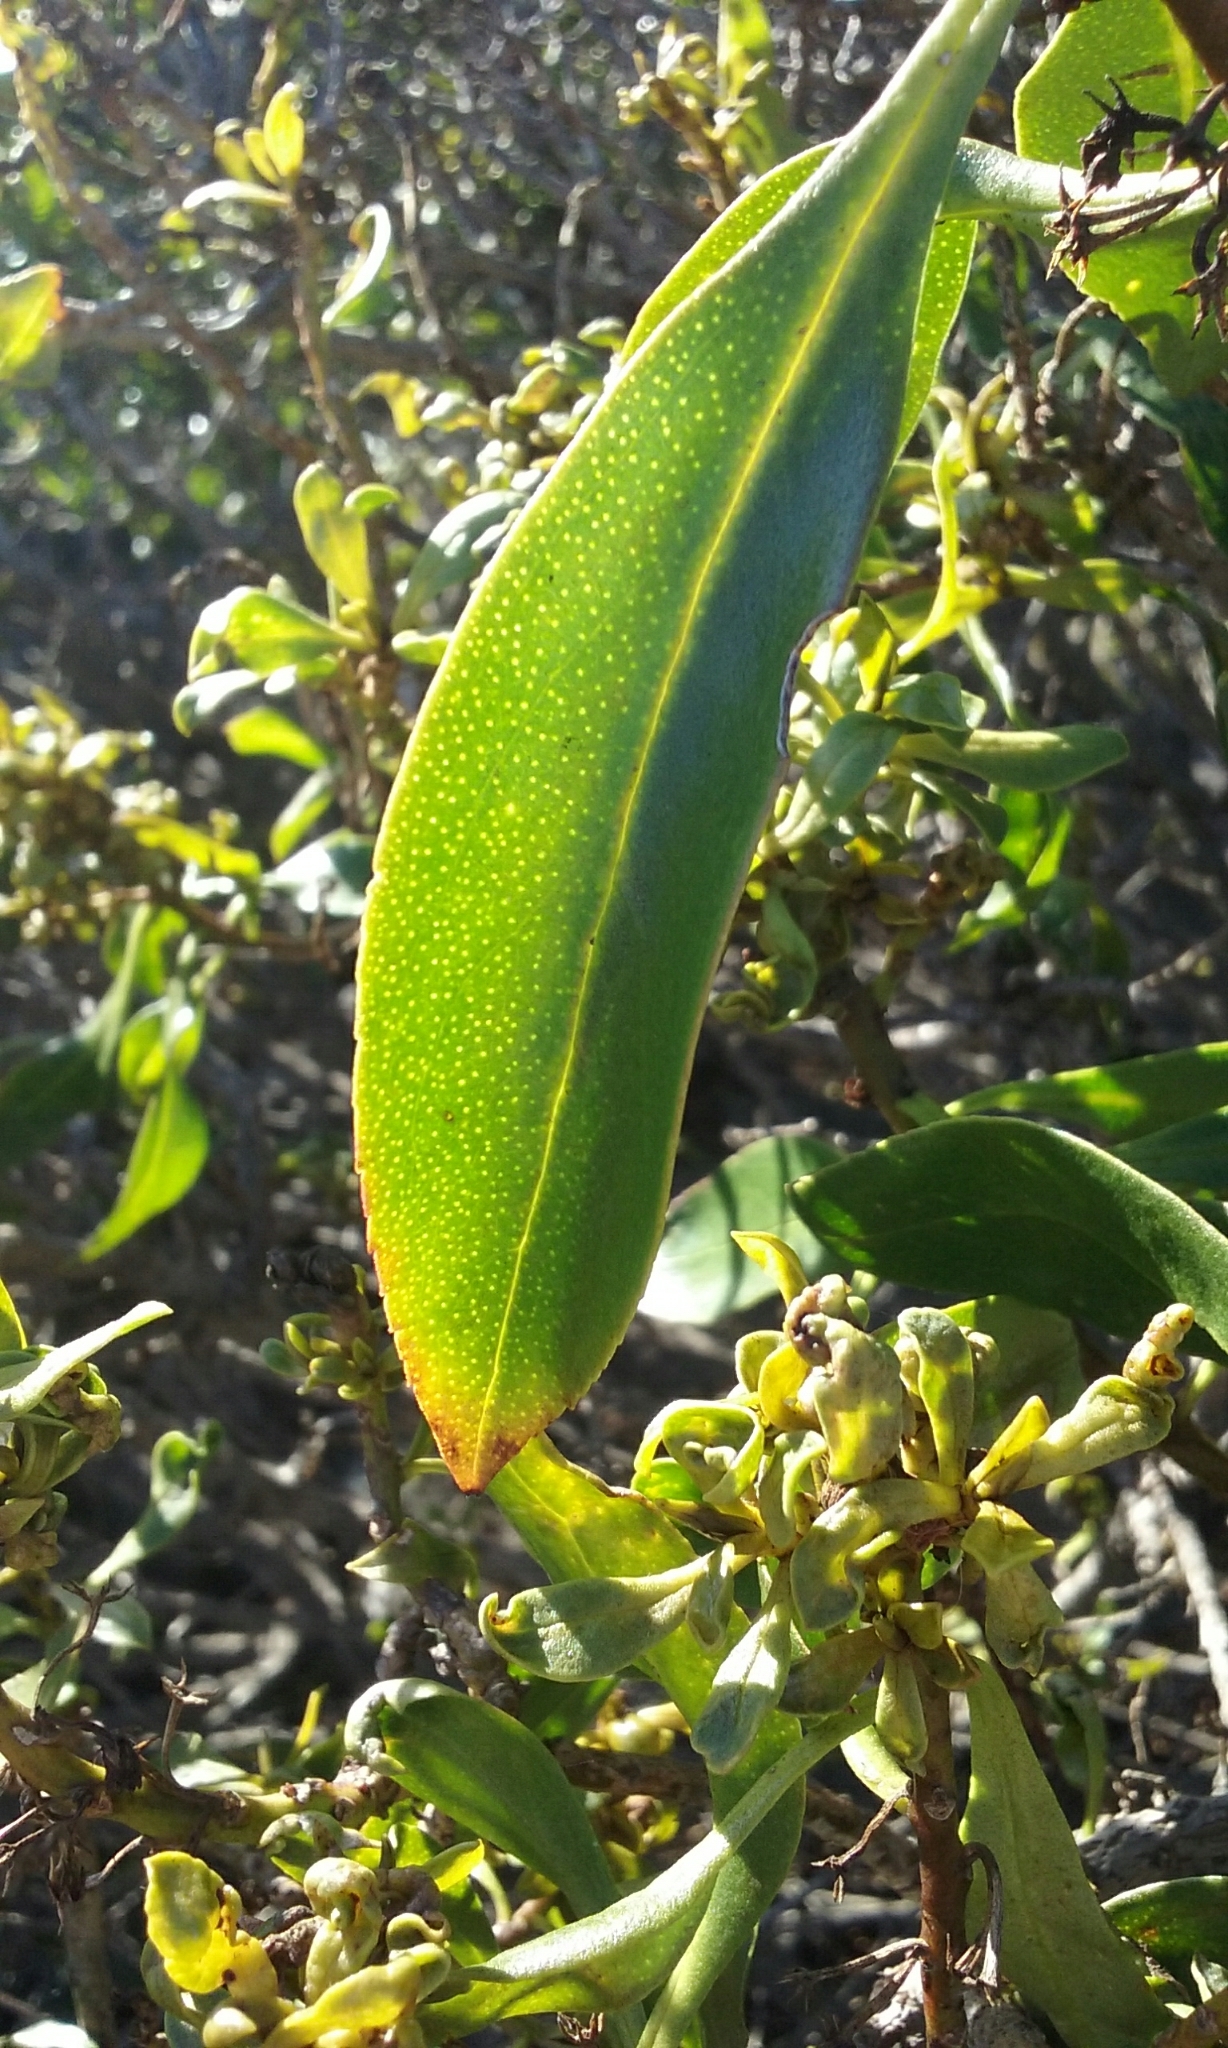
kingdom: Plantae
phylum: Tracheophyta
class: Magnoliopsida
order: Lamiales
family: Scrophulariaceae
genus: Myoporum
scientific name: Myoporum laetum
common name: Ngaio tree
